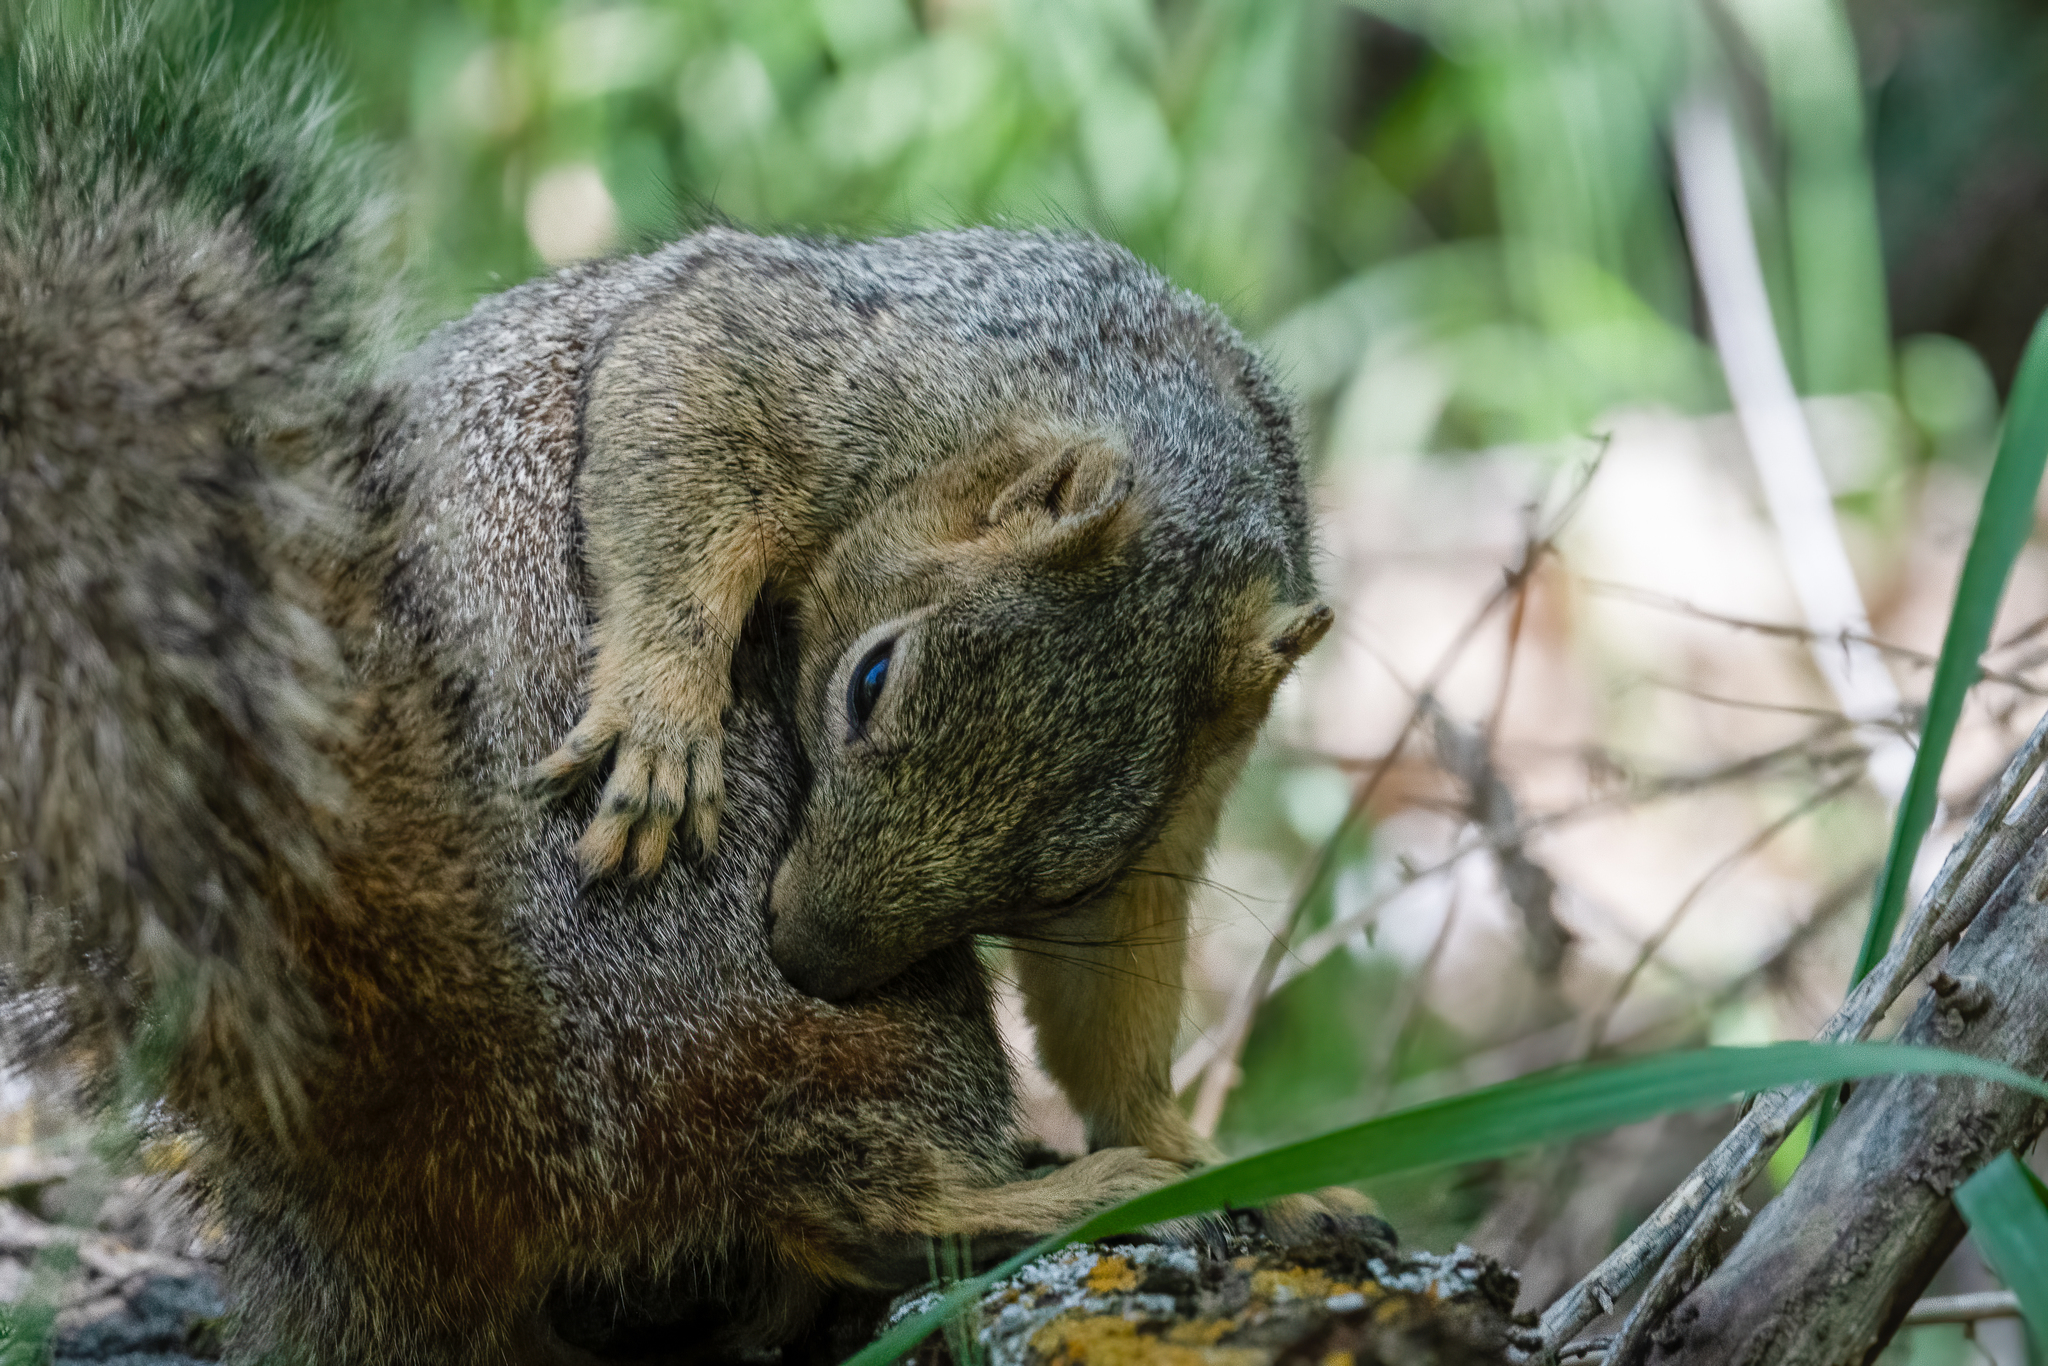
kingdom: Animalia
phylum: Chordata
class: Mammalia
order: Rodentia
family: Sciuridae
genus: Sciurus
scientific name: Sciurus niger
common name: Fox squirrel
